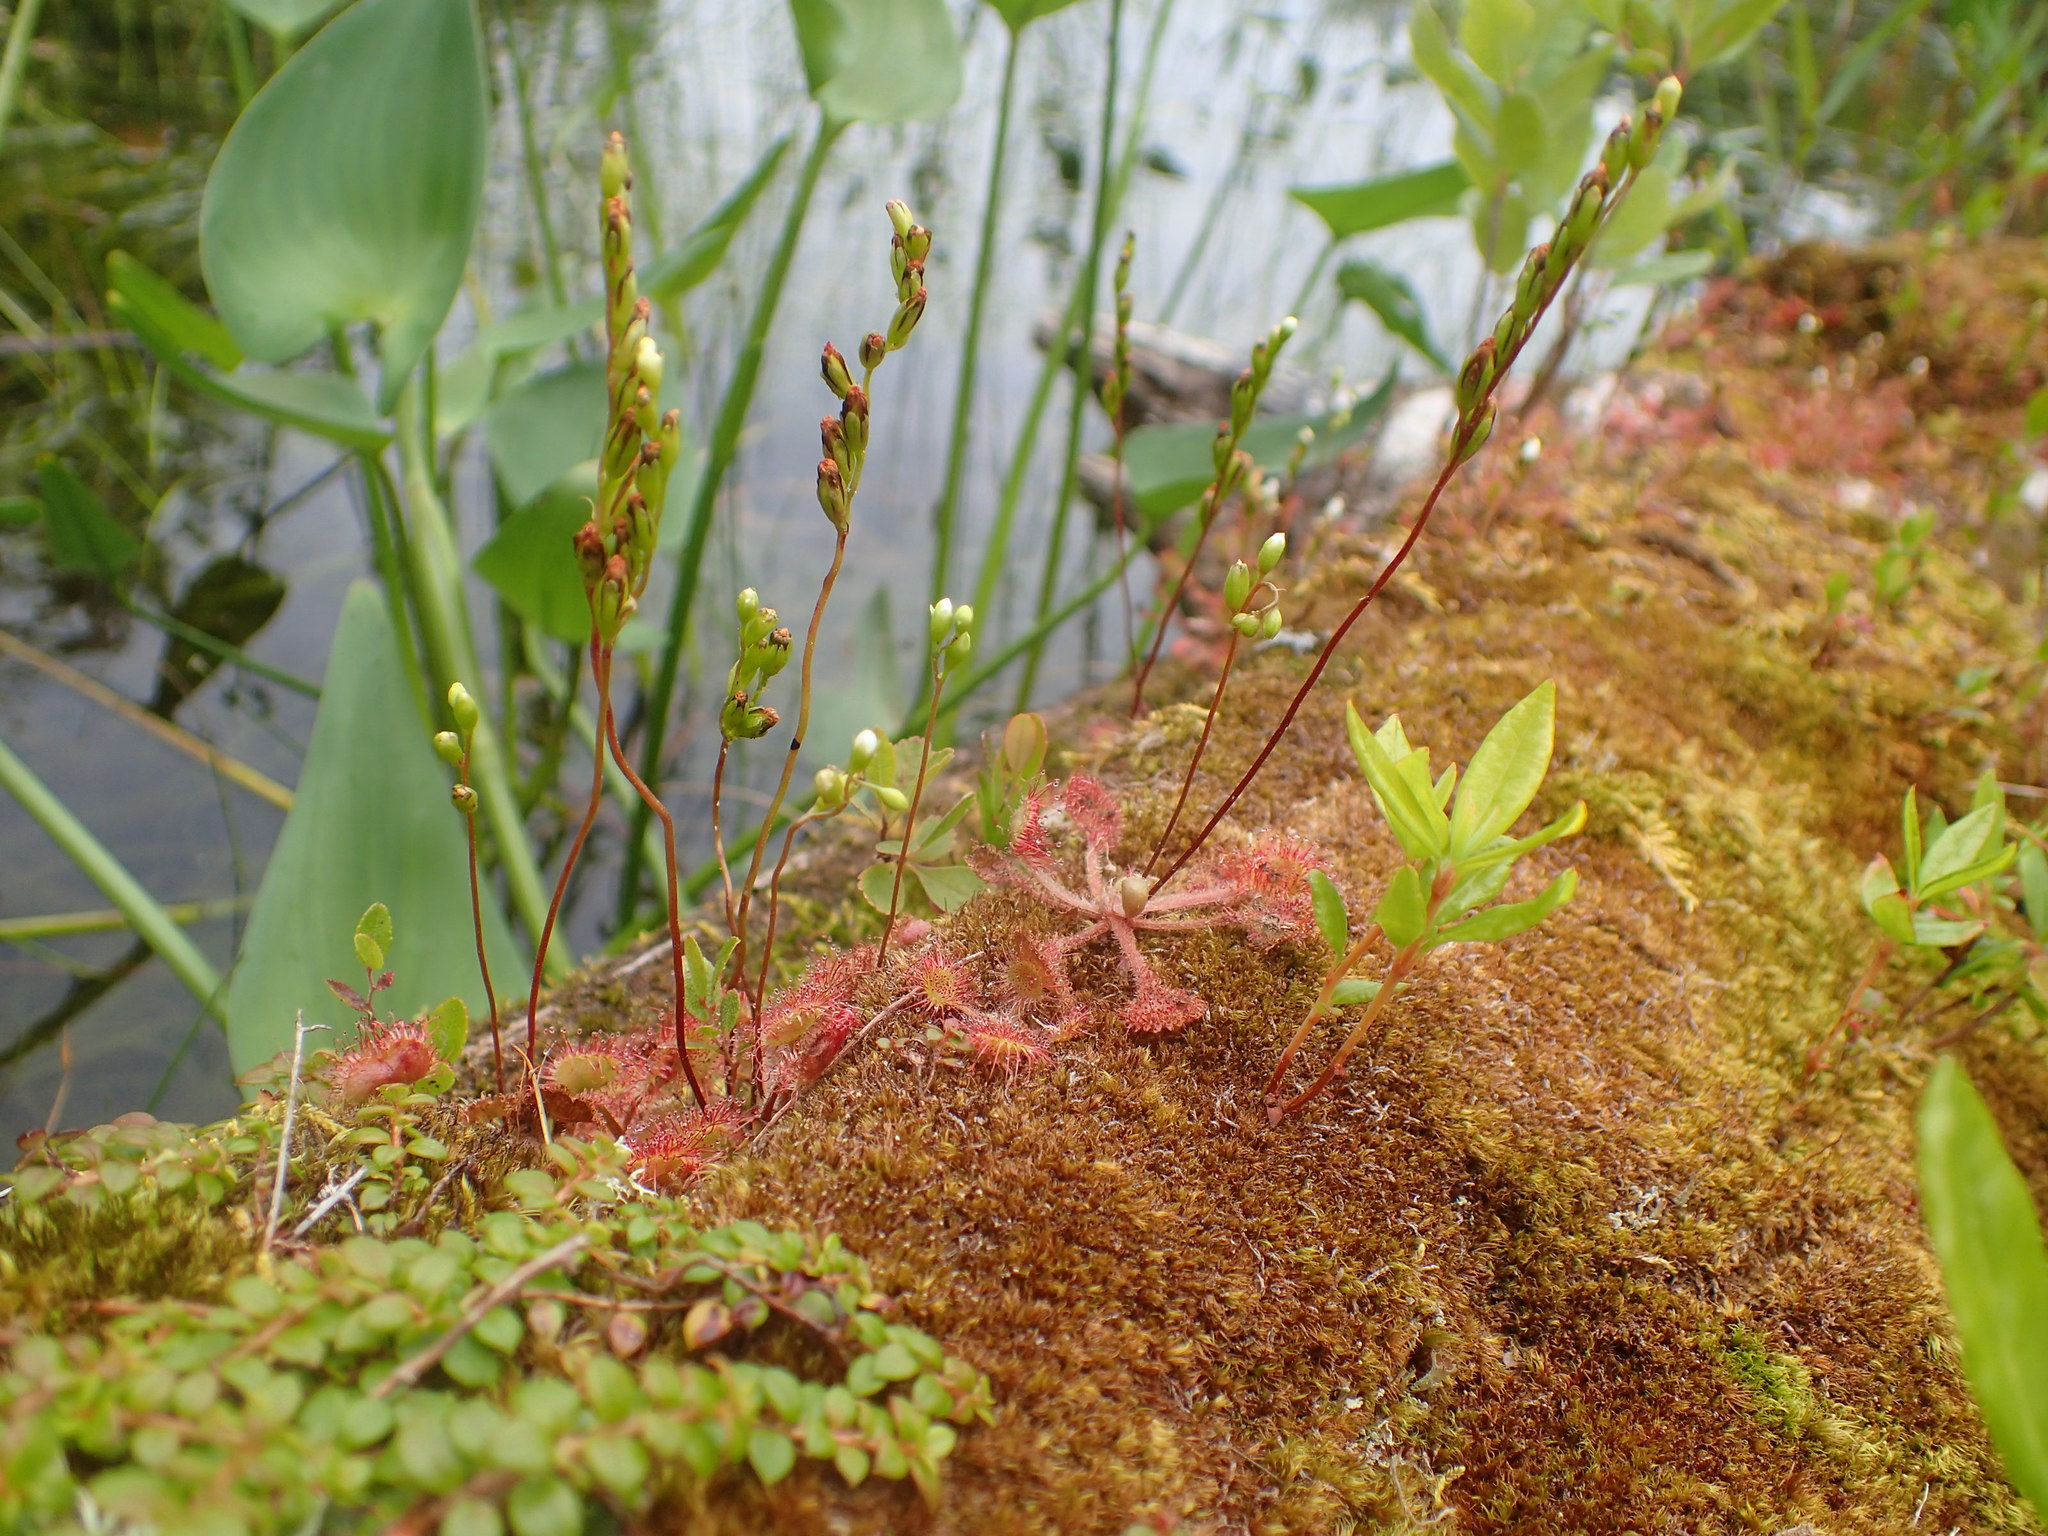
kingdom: Plantae
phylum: Tracheophyta
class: Magnoliopsida
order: Caryophyllales
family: Droseraceae
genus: Drosera
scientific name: Drosera rotundifolia
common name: Round-leaved sundew
